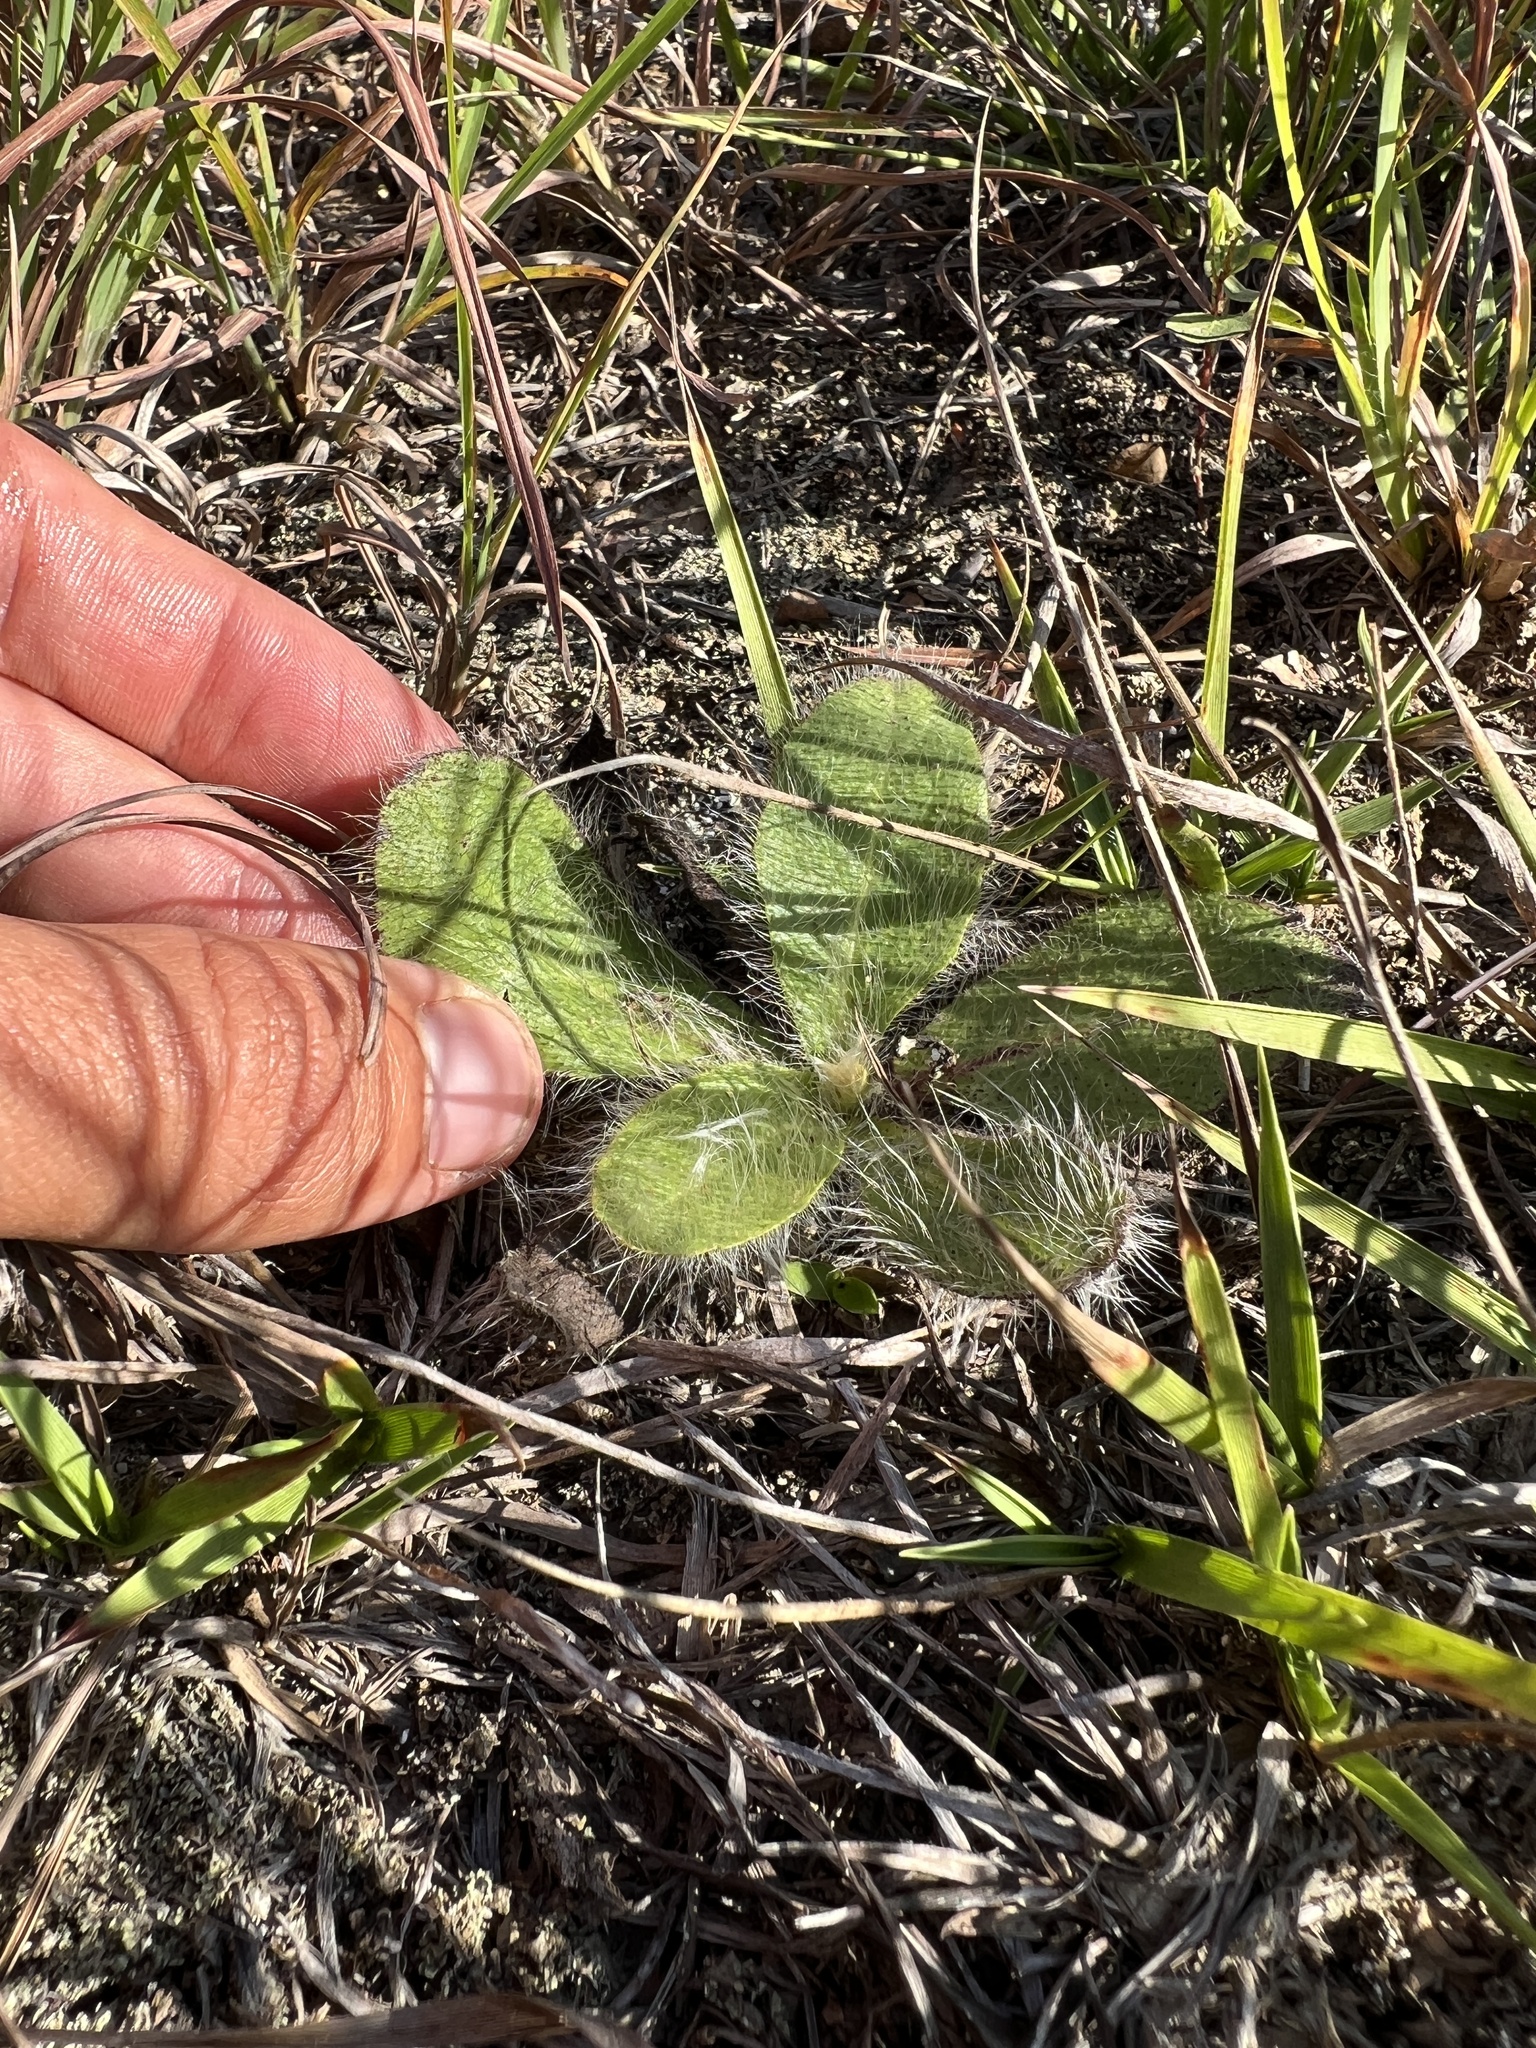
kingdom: Plantae
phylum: Tracheophyta
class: Magnoliopsida
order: Asterales
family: Asteraceae
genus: Hieracium
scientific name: Hieracium longipilum
